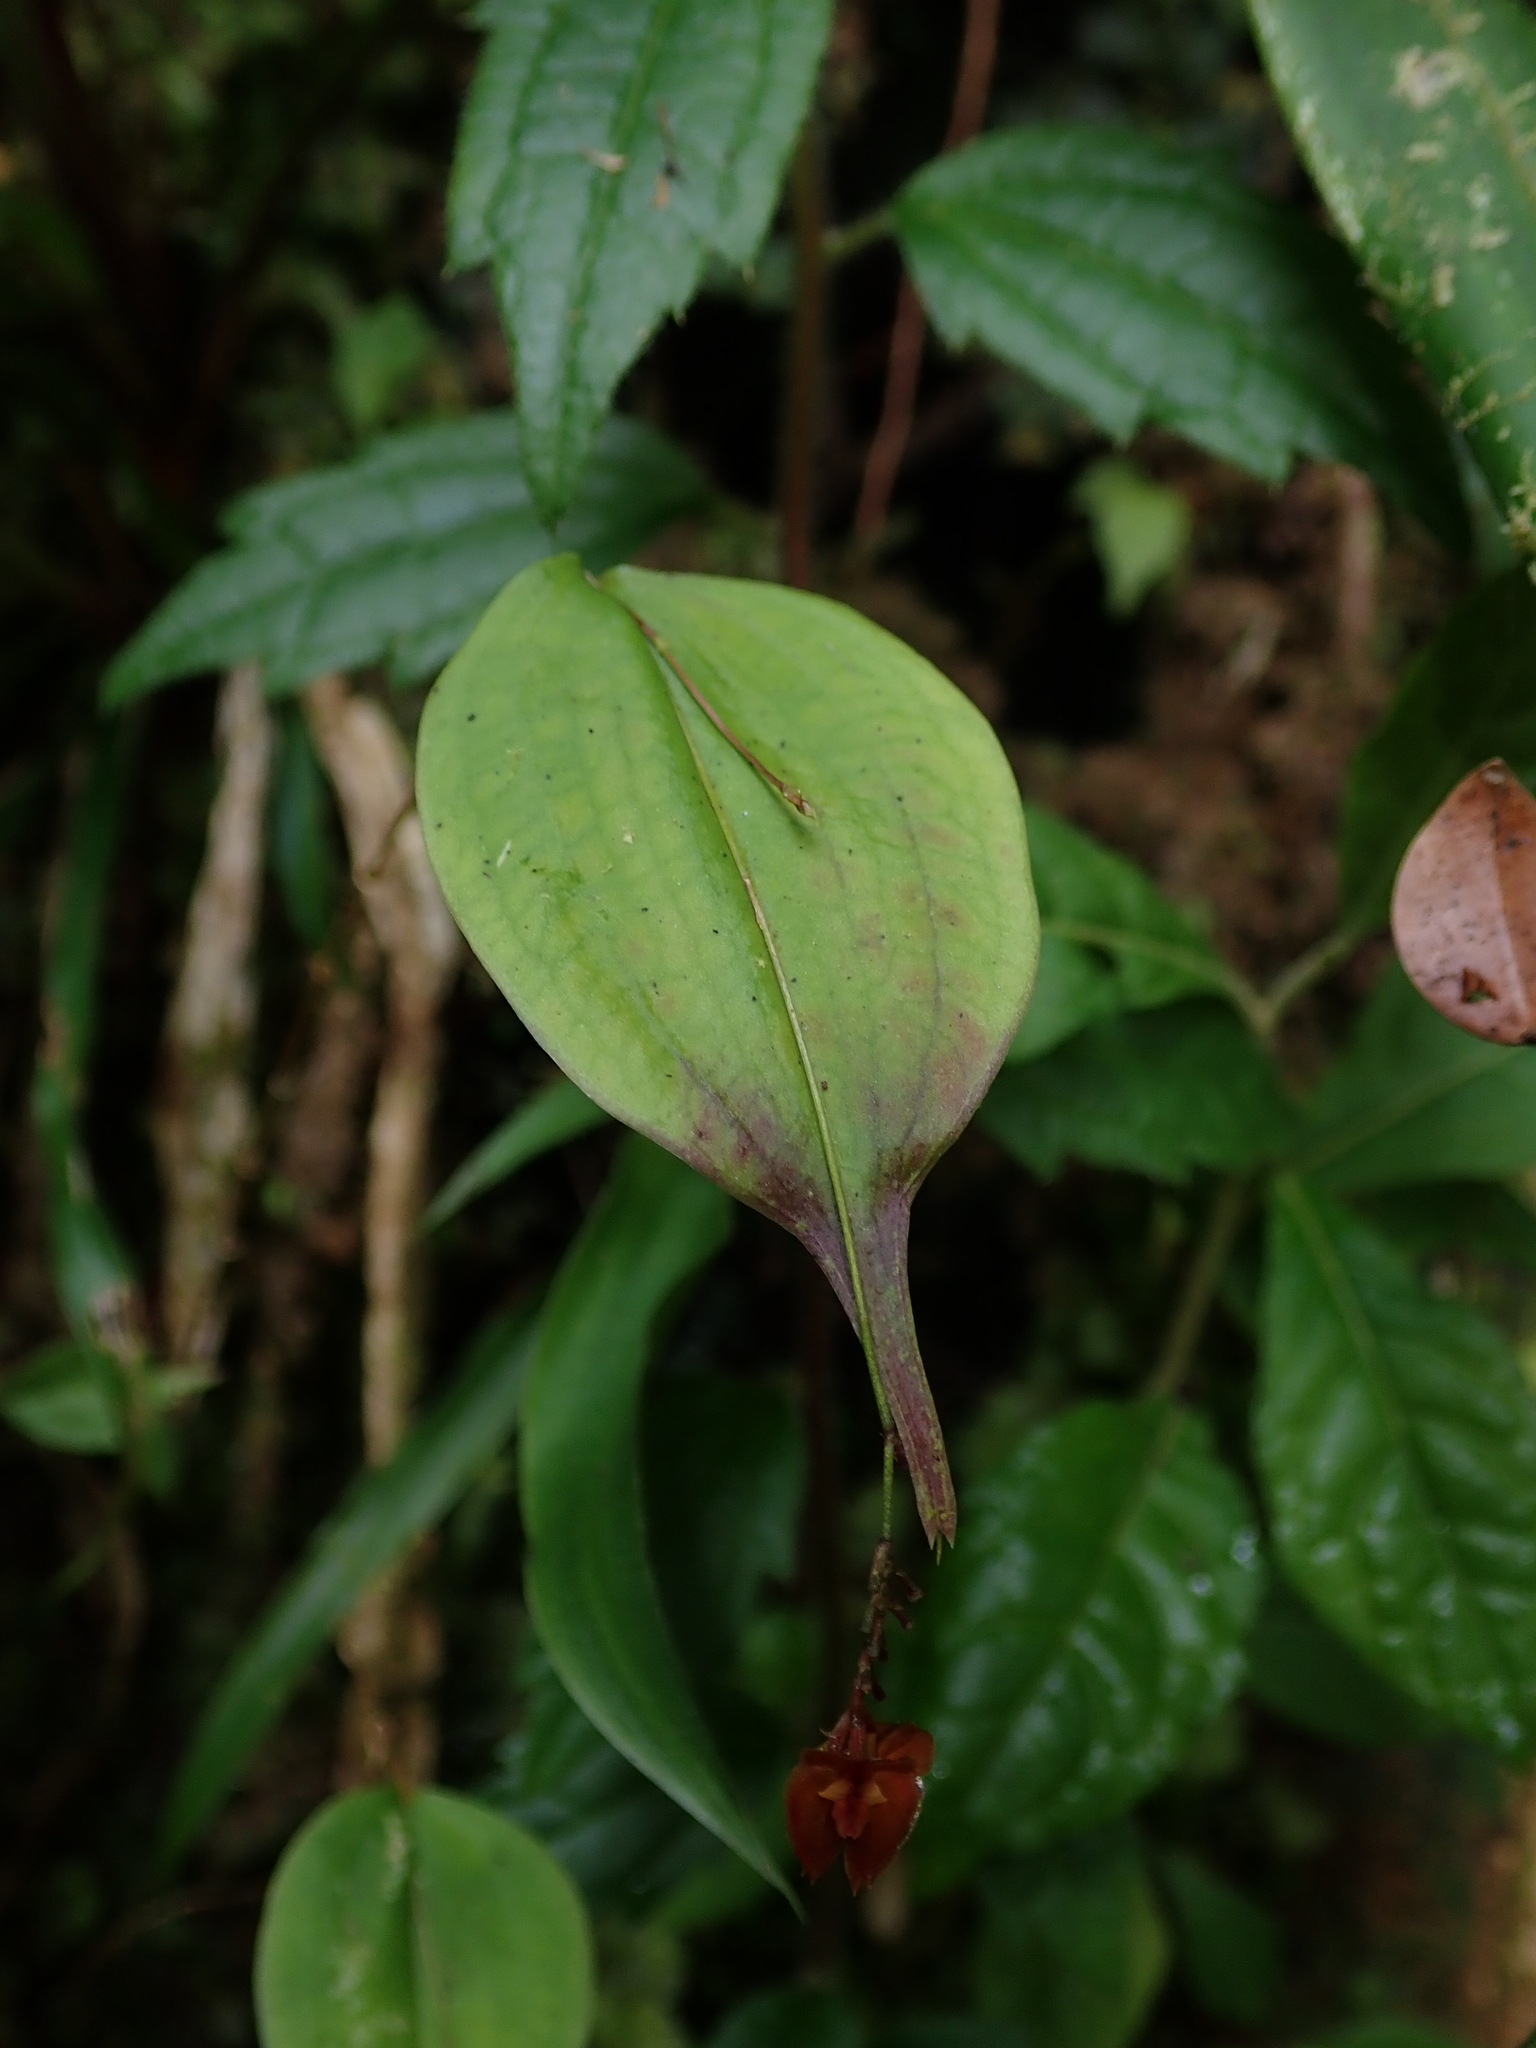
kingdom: Plantae
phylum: Tracheophyta
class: Liliopsida
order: Asparagales
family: Orchidaceae
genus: Lepanthes
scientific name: Lepanthes vespertilio
